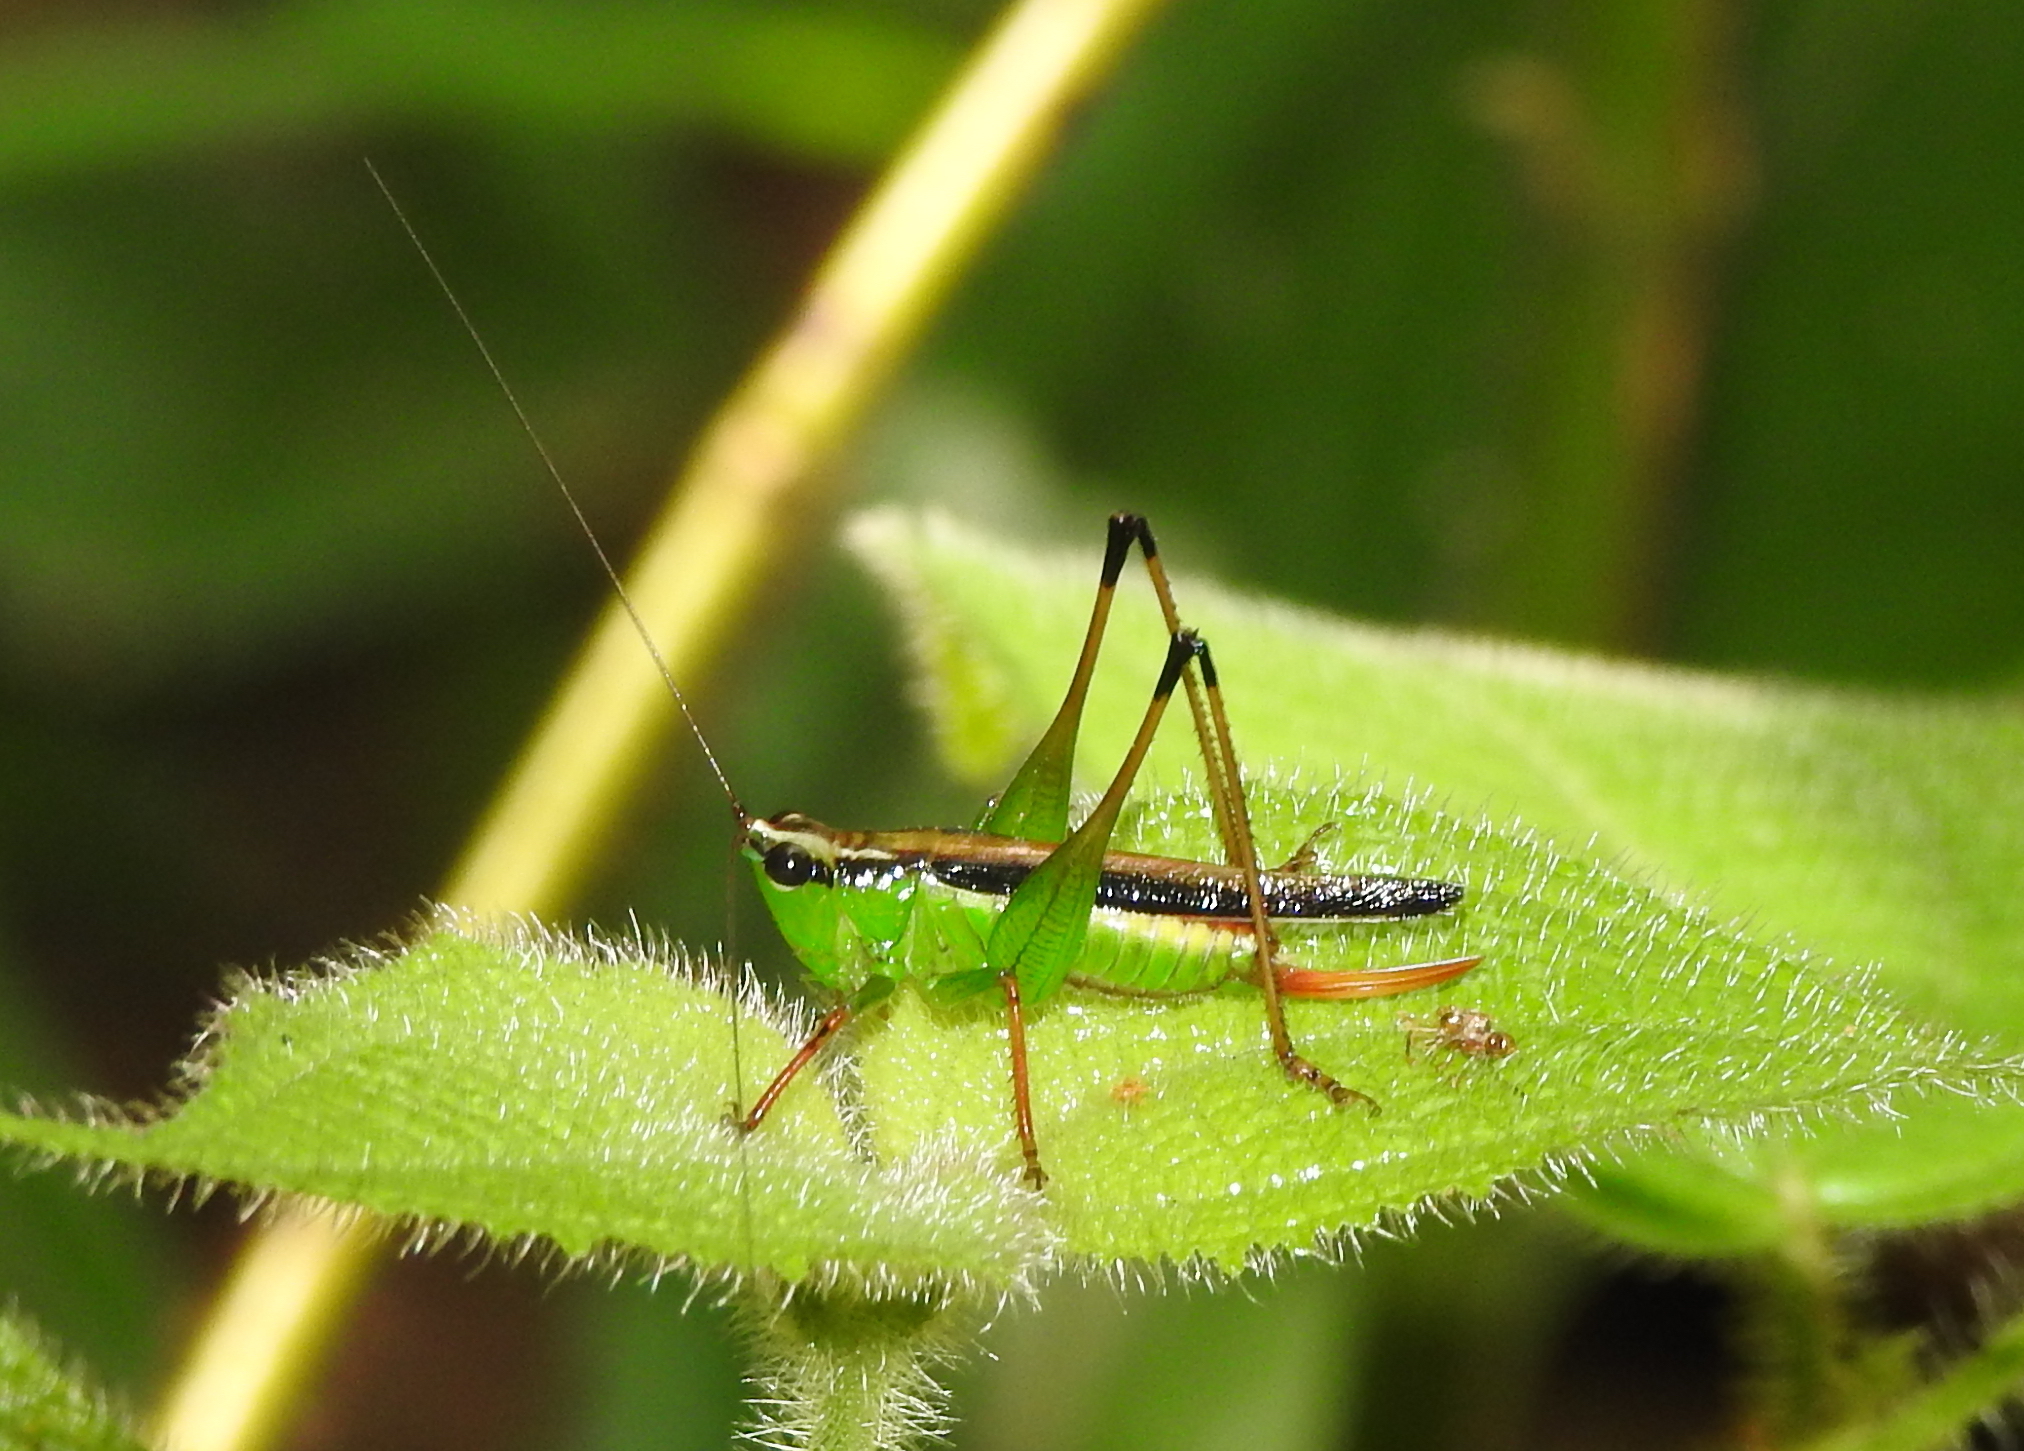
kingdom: Animalia
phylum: Arthropoda
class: Insecta
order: Orthoptera
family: Tettigoniidae
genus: Conocephalus
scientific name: Conocephalus melaenus
